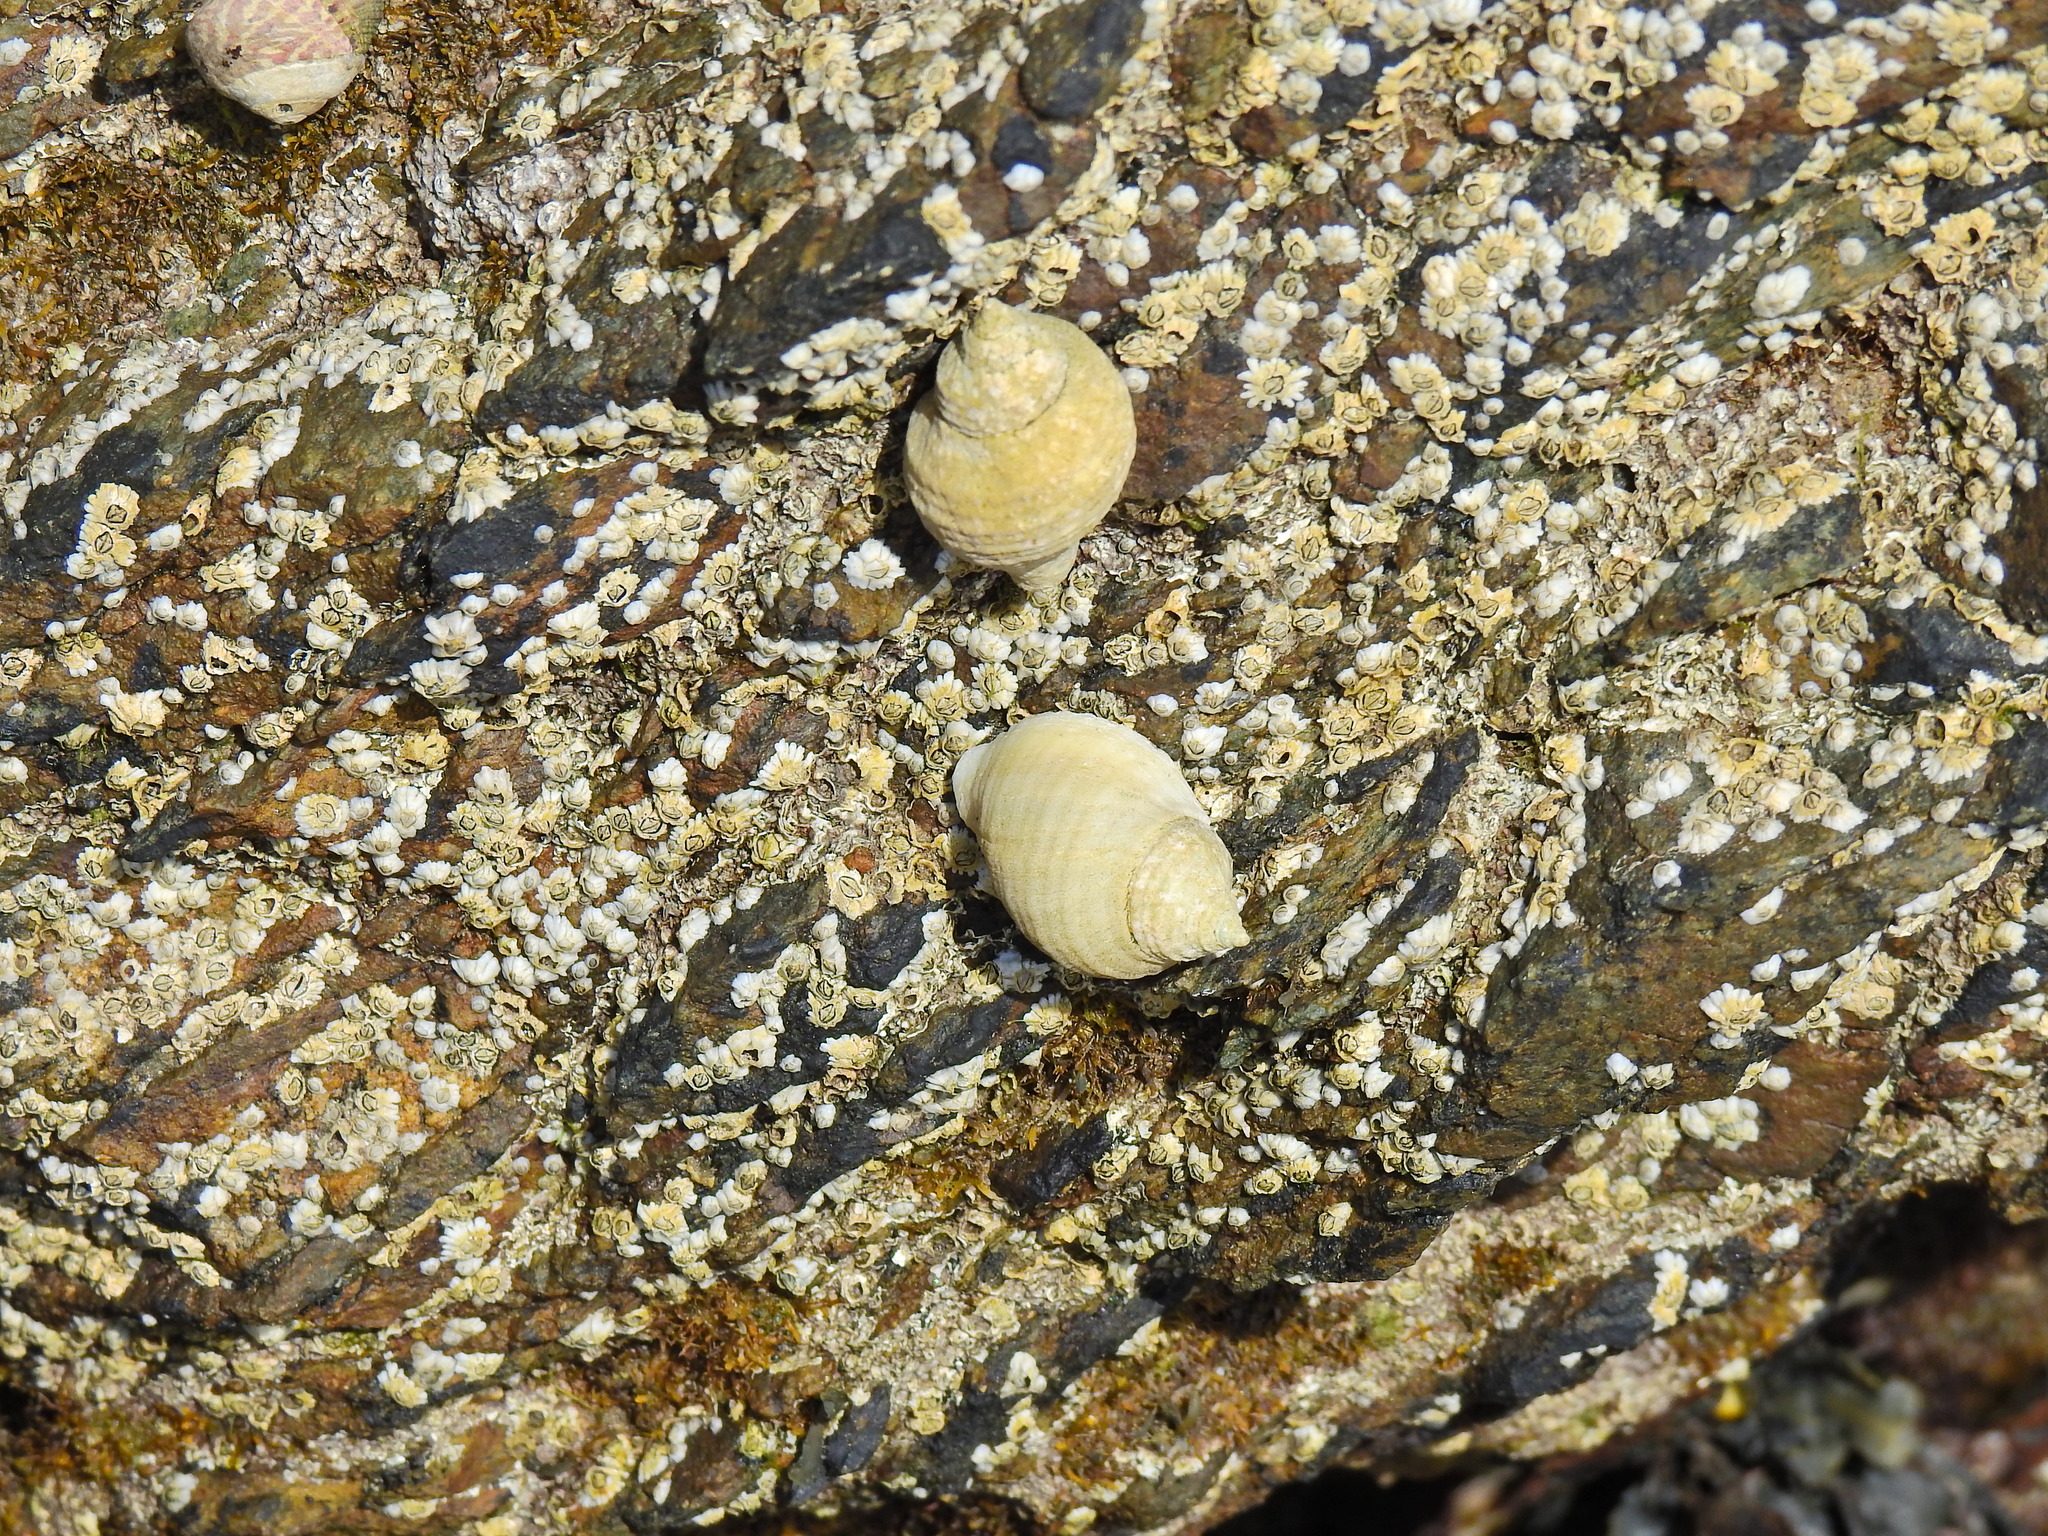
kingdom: Animalia
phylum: Mollusca
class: Gastropoda
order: Neogastropoda
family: Muricidae
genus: Nucella
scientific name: Nucella lapillus
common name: Dog whelk
